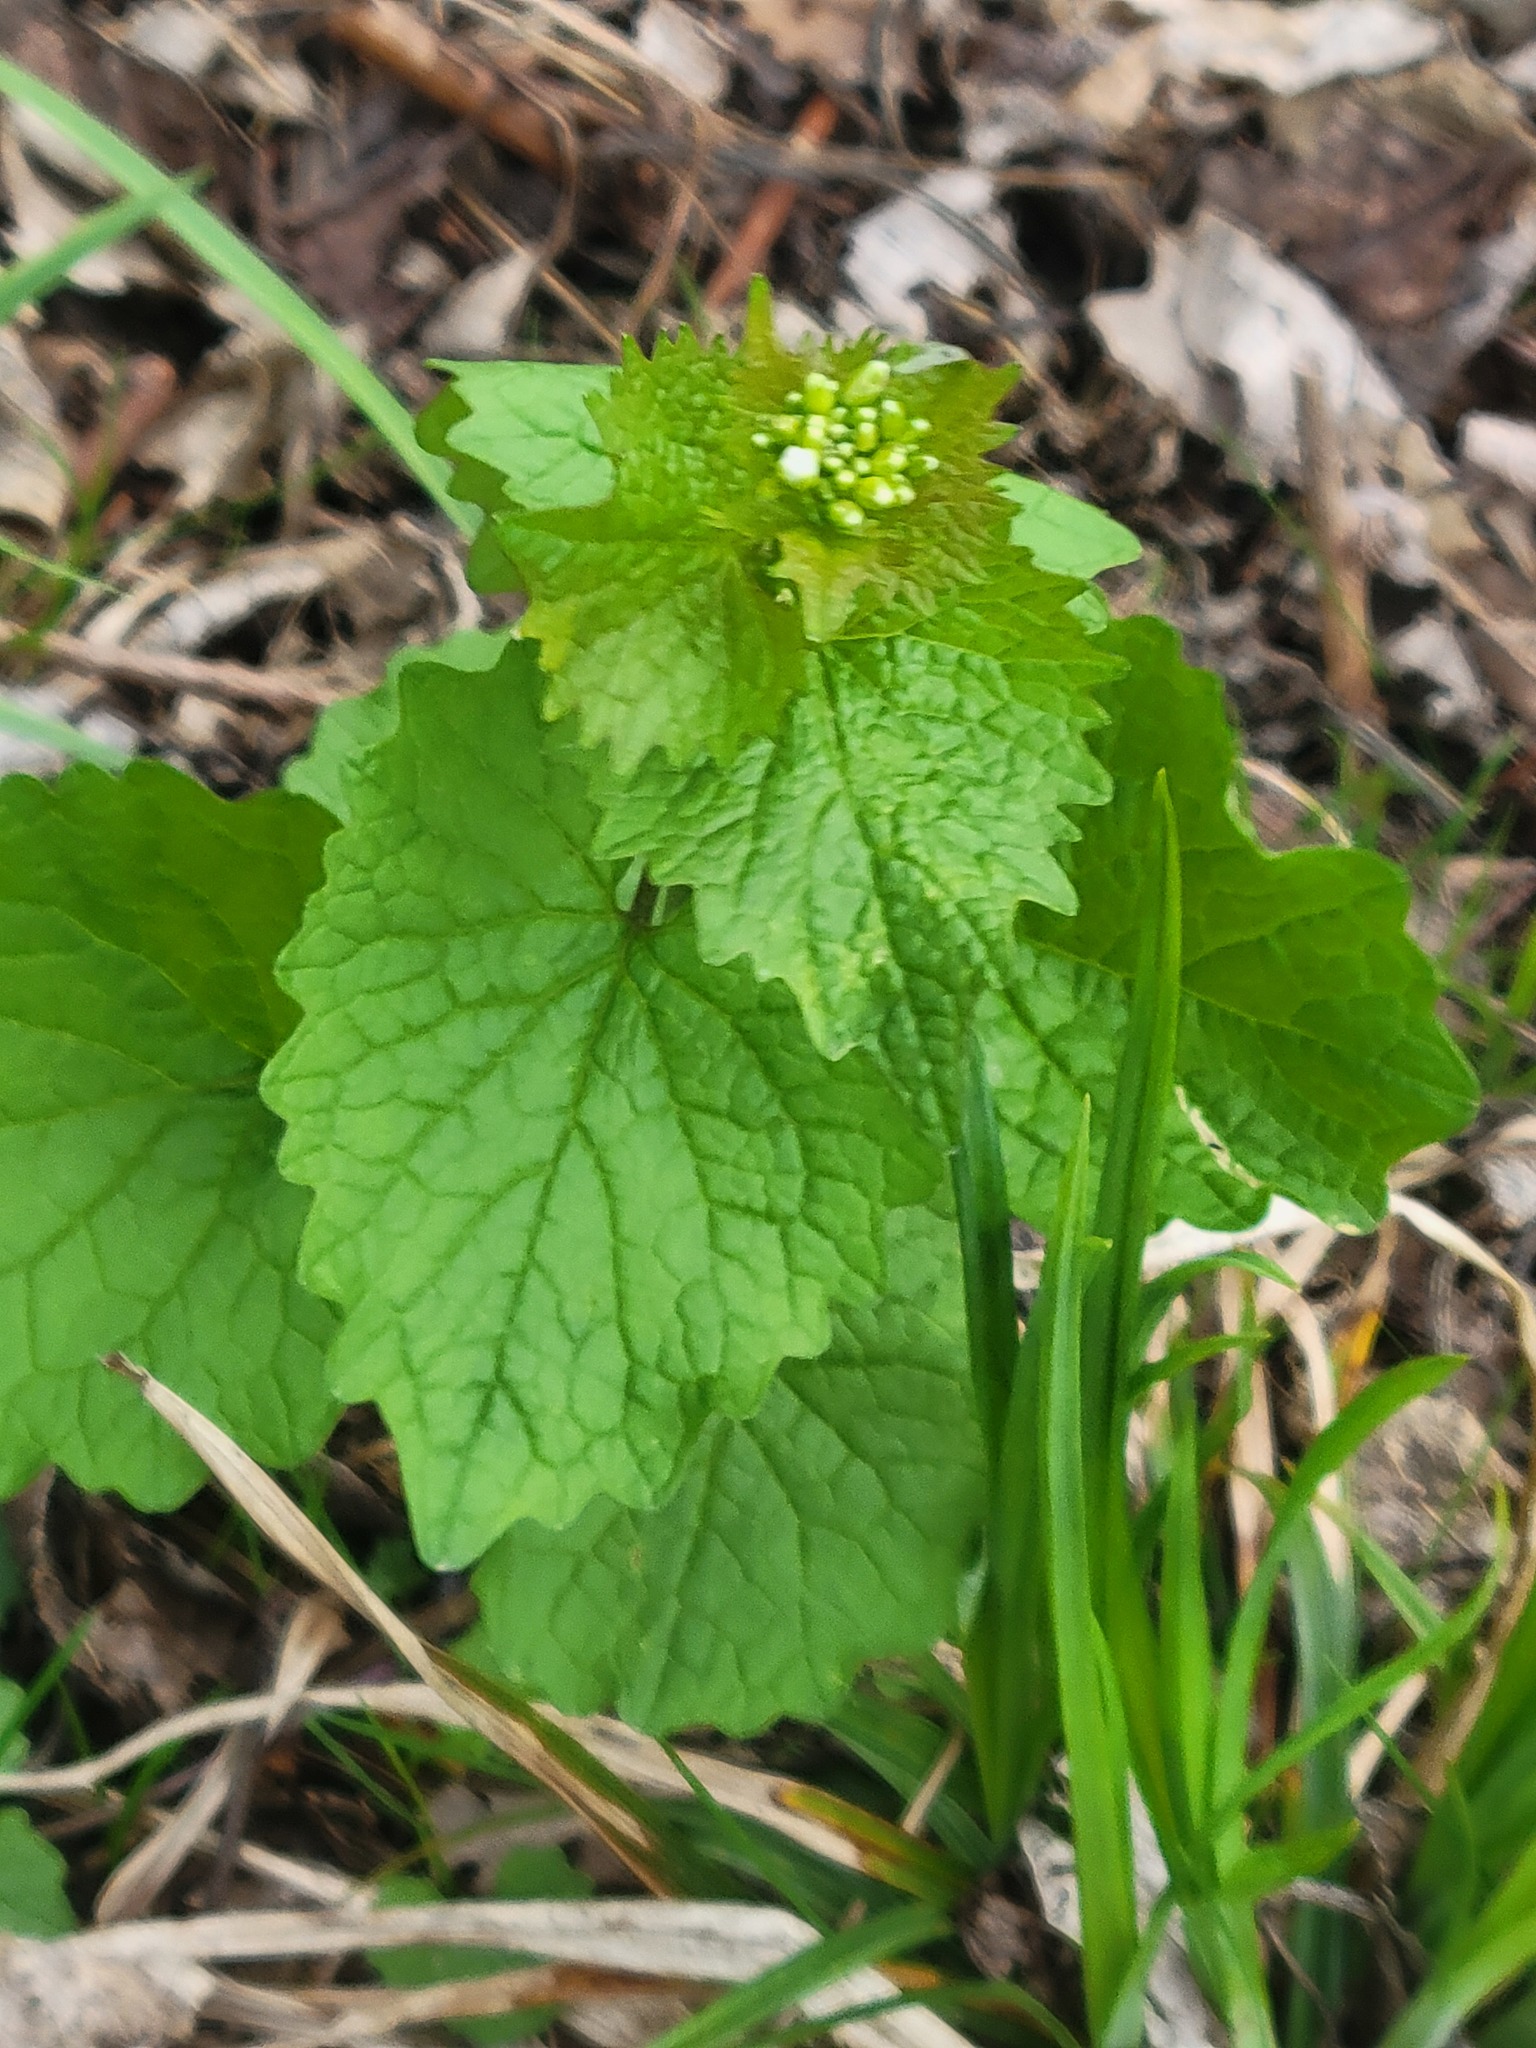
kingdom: Plantae
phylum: Tracheophyta
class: Magnoliopsida
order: Brassicales
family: Brassicaceae
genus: Alliaria
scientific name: Alliaria petiolata
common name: Garlic mustard
